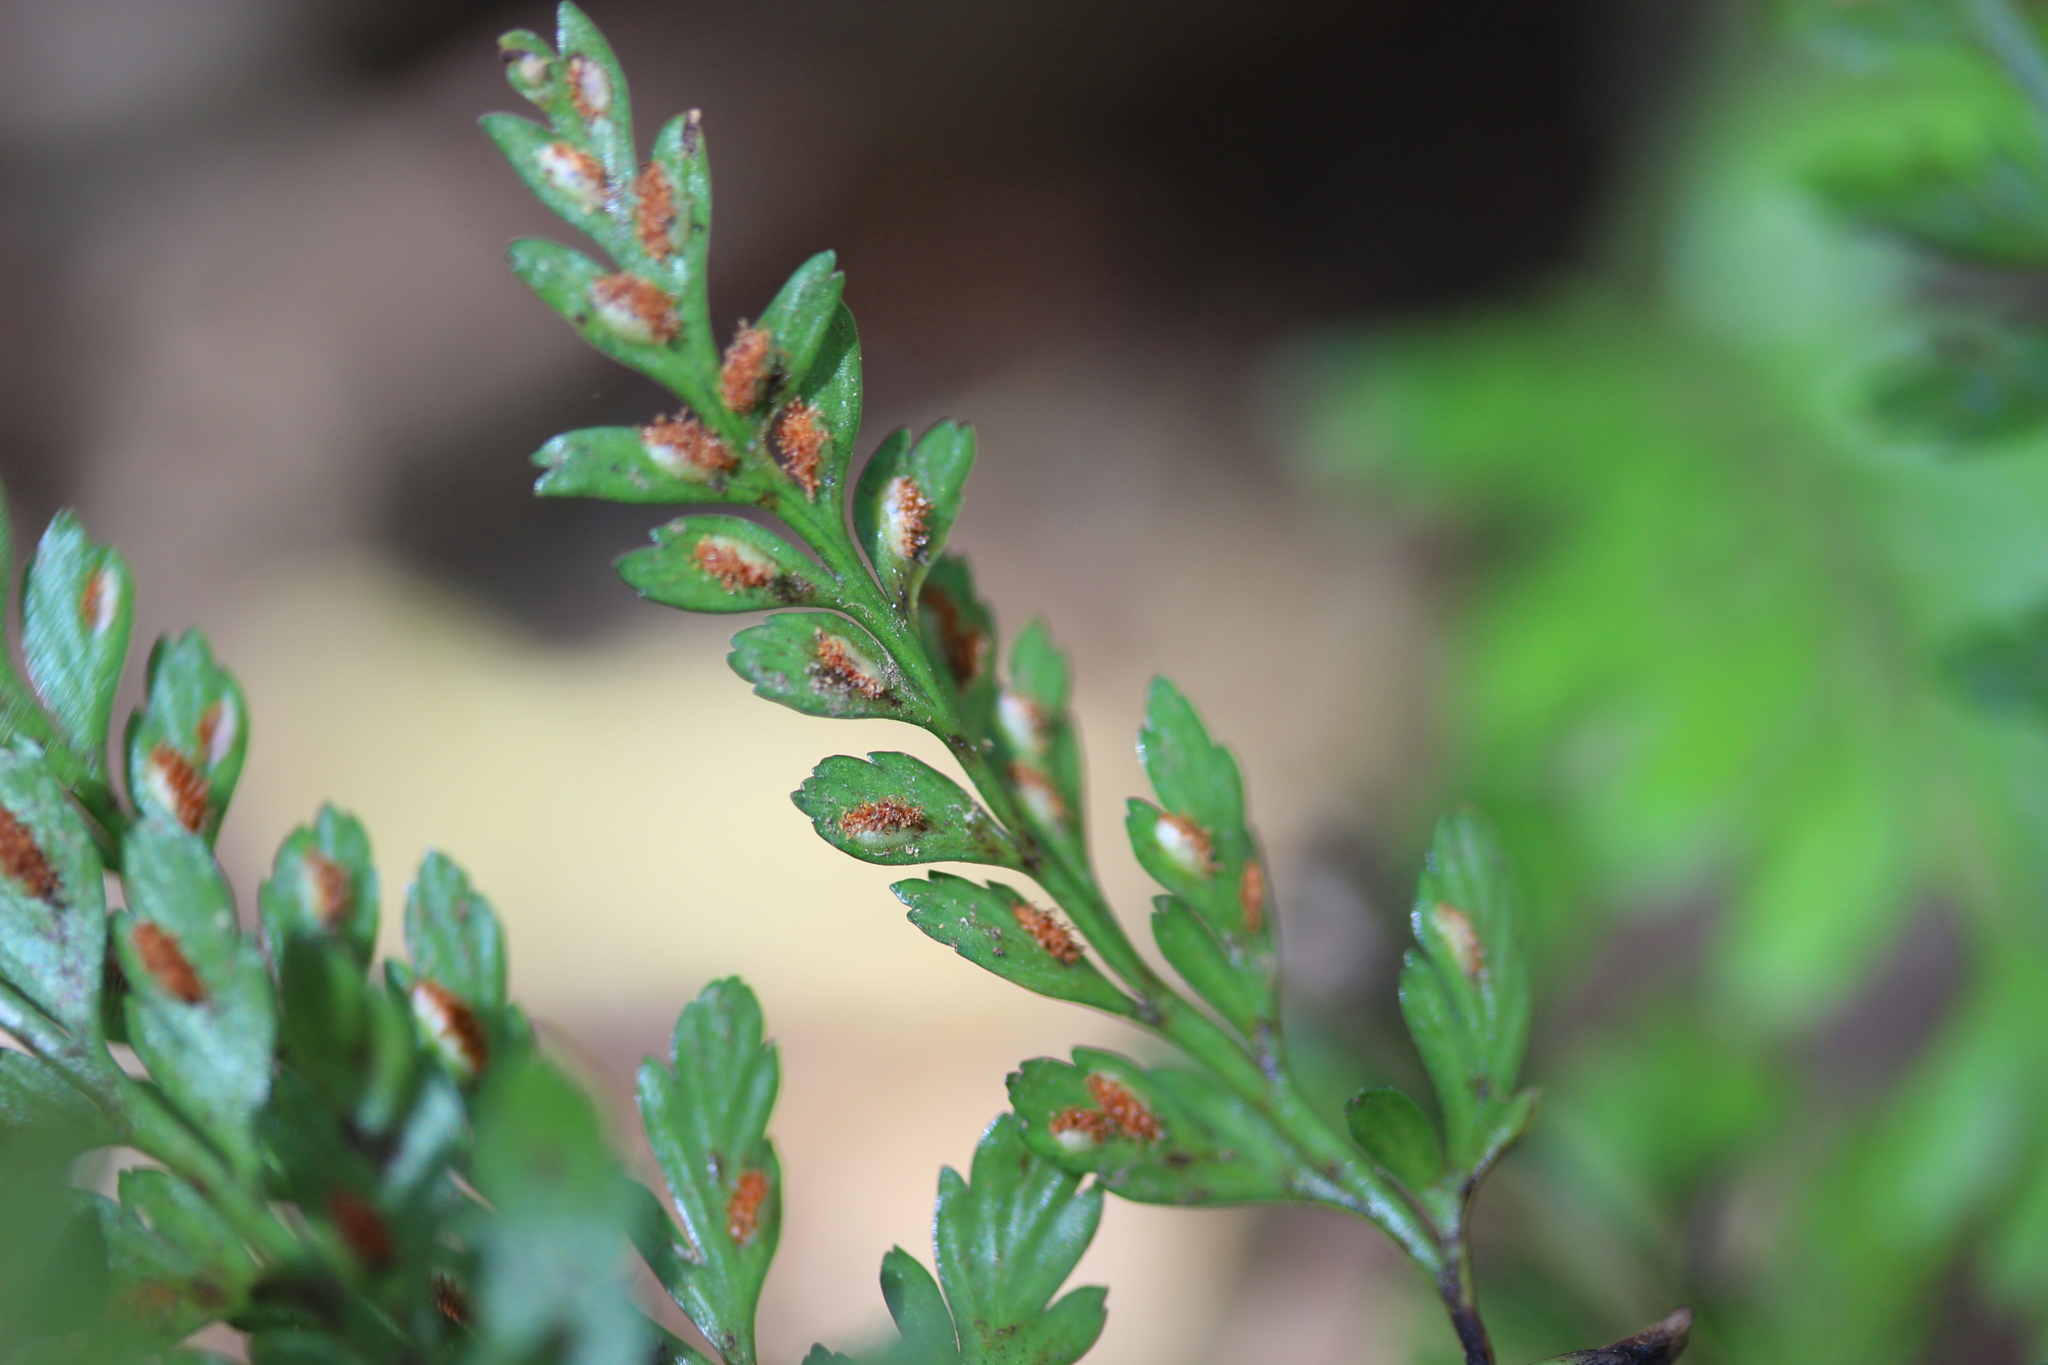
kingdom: Plantae
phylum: Tracheophyta
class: Polypodiopsida
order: Polypodiales
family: Aspleniaceae
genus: Asplenium
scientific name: Asplenium
